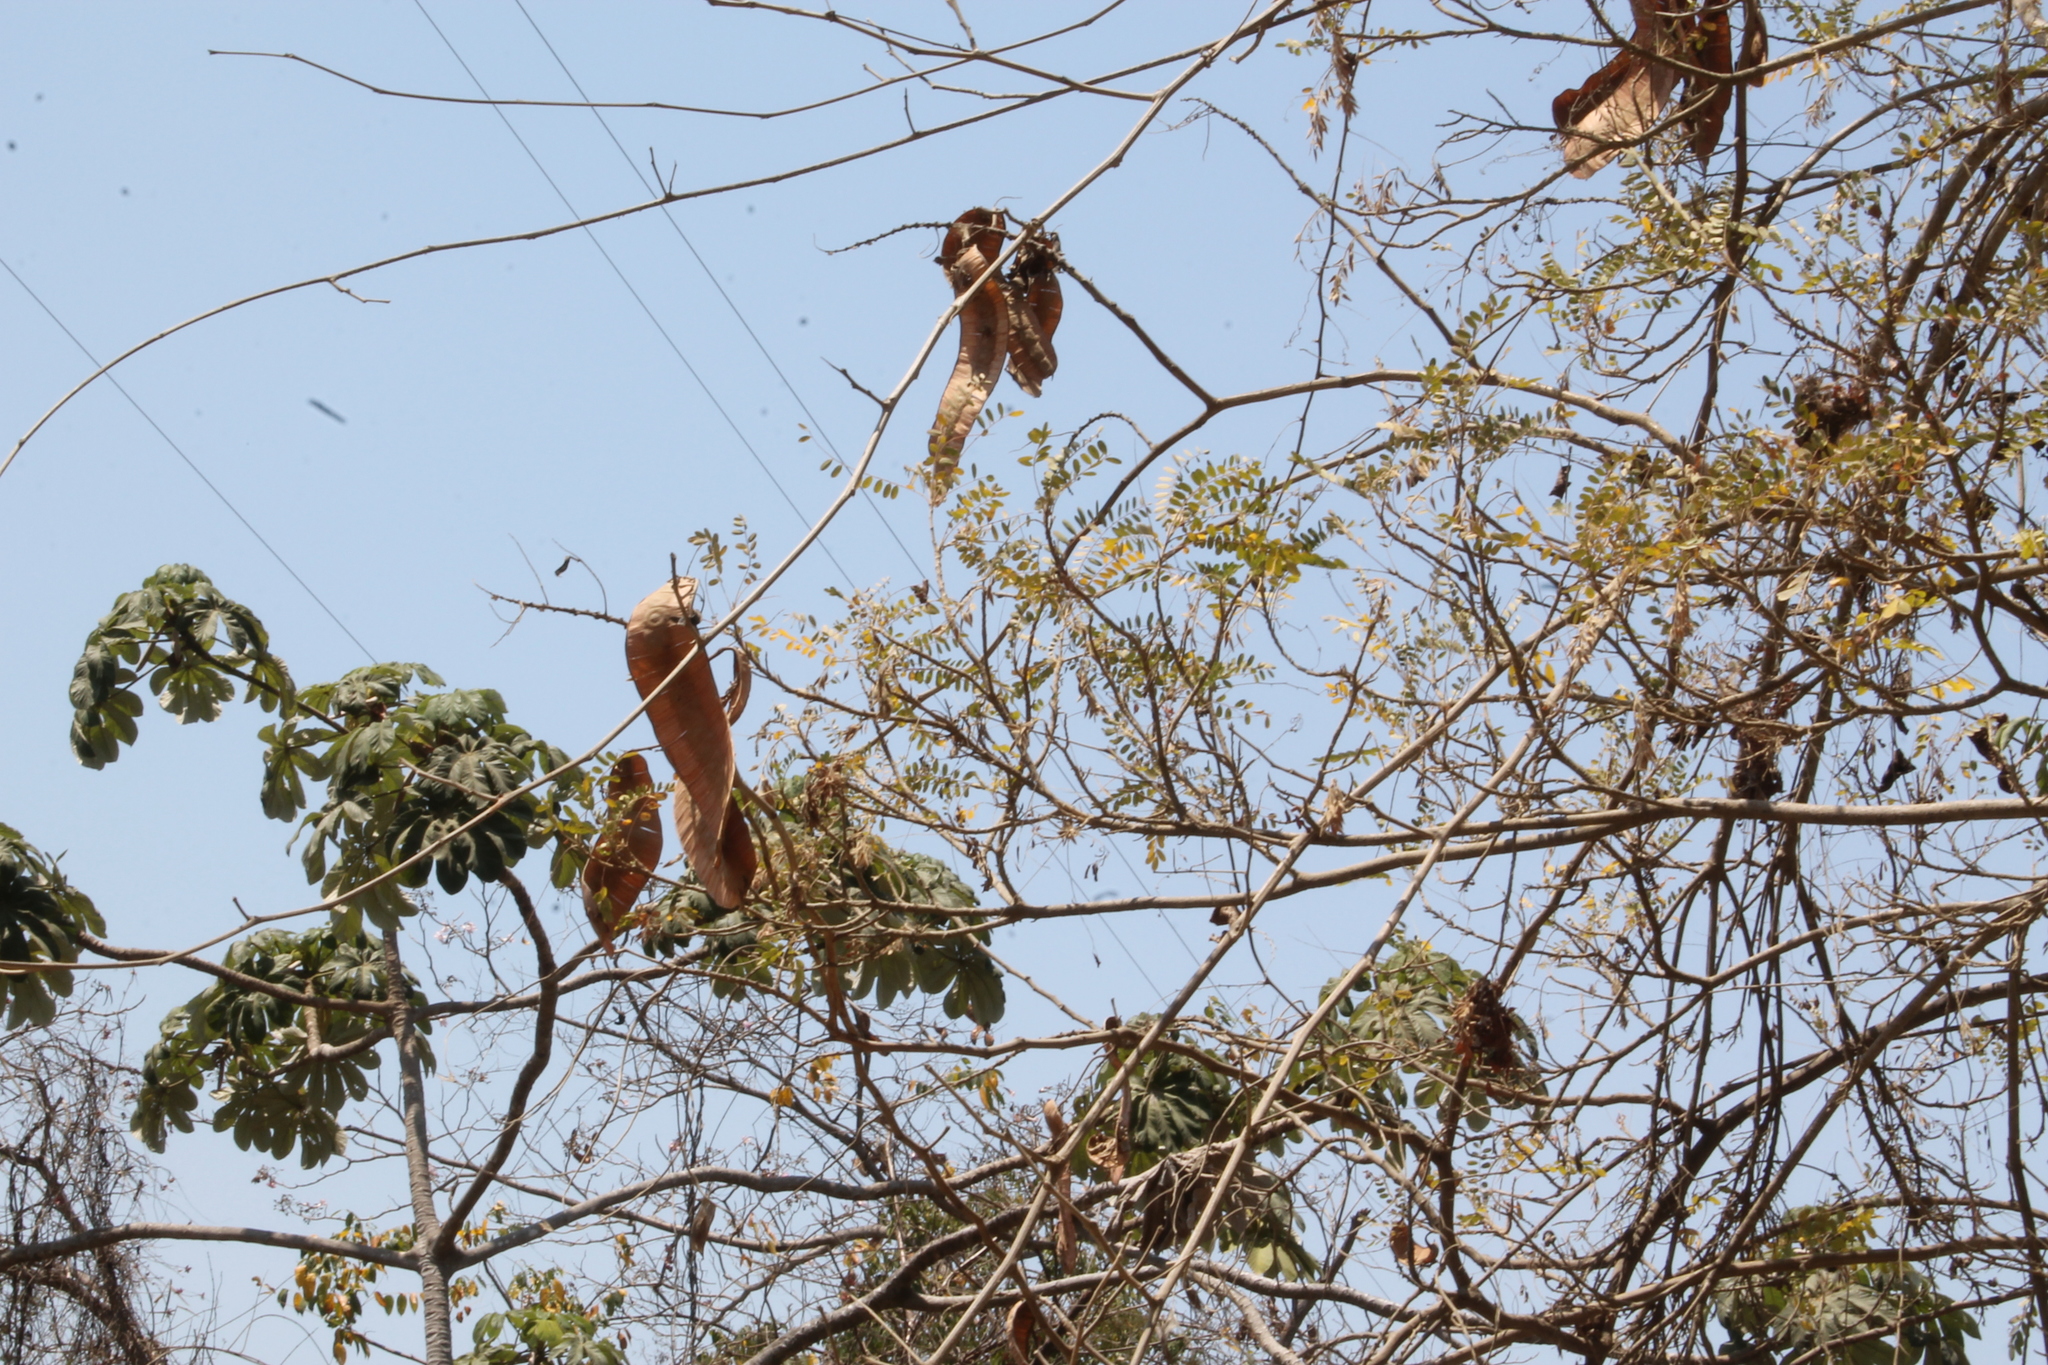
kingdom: Plantae
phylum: Tracheophyta
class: Magnoliopsida
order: Fabales
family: Fabaceae
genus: Entada
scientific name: Entada polystachya
